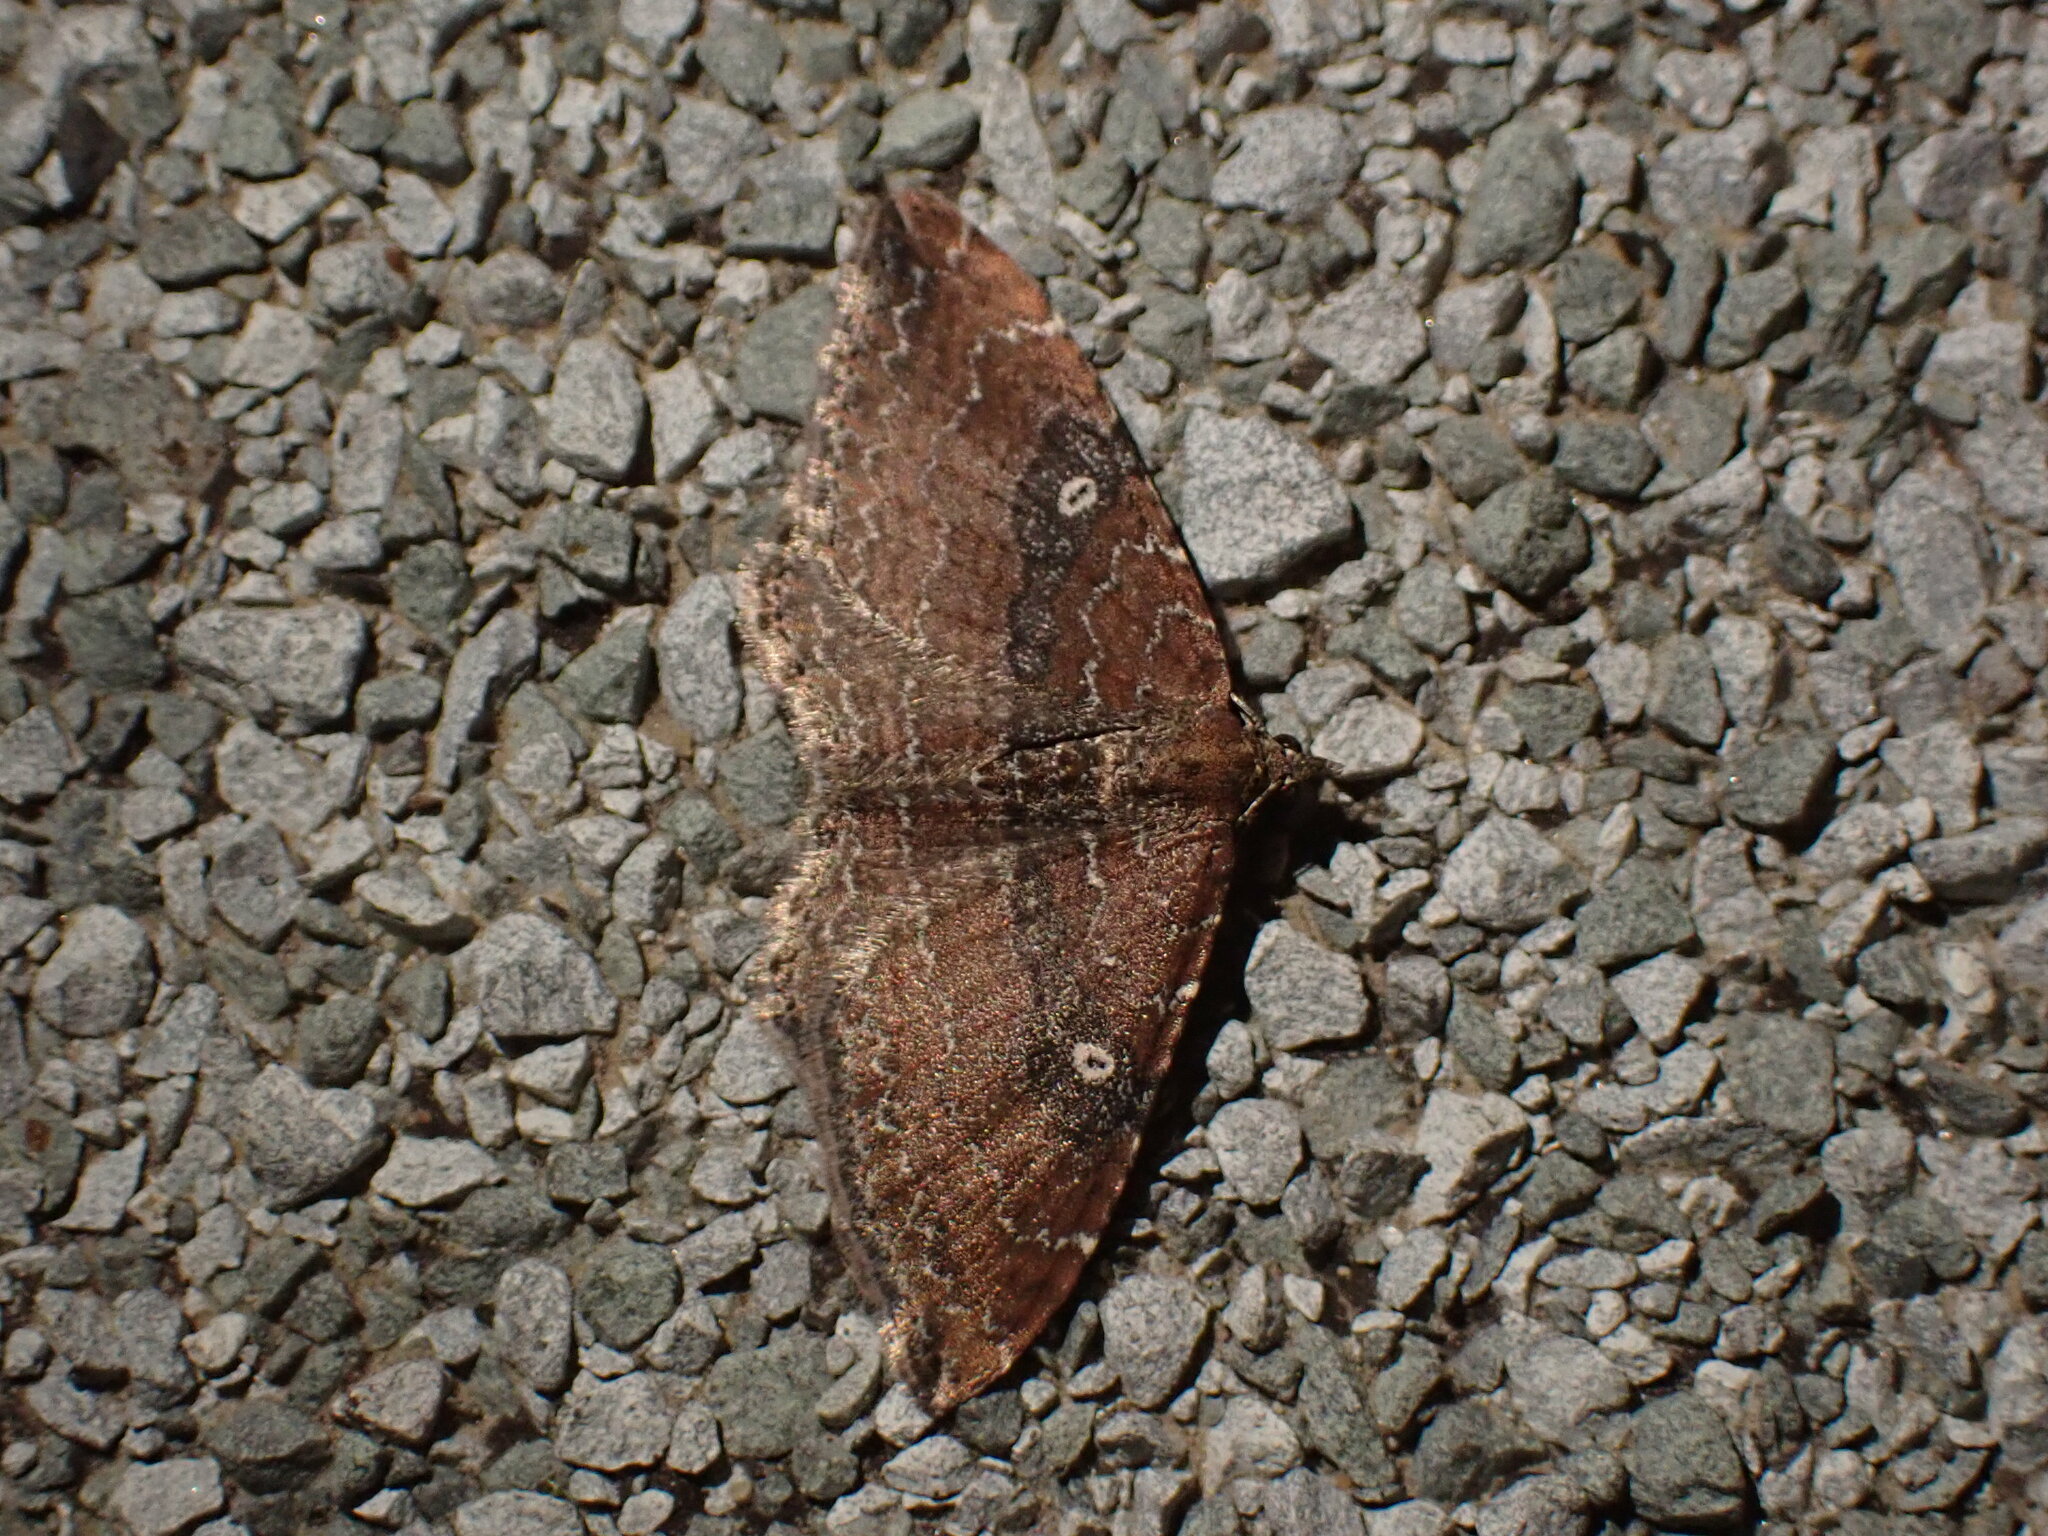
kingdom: Animalia
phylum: Arthropoda
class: Insecta
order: Lepidoptera
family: Geometridae
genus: Orthonama
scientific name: Orthonama obstipata
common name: The gem
